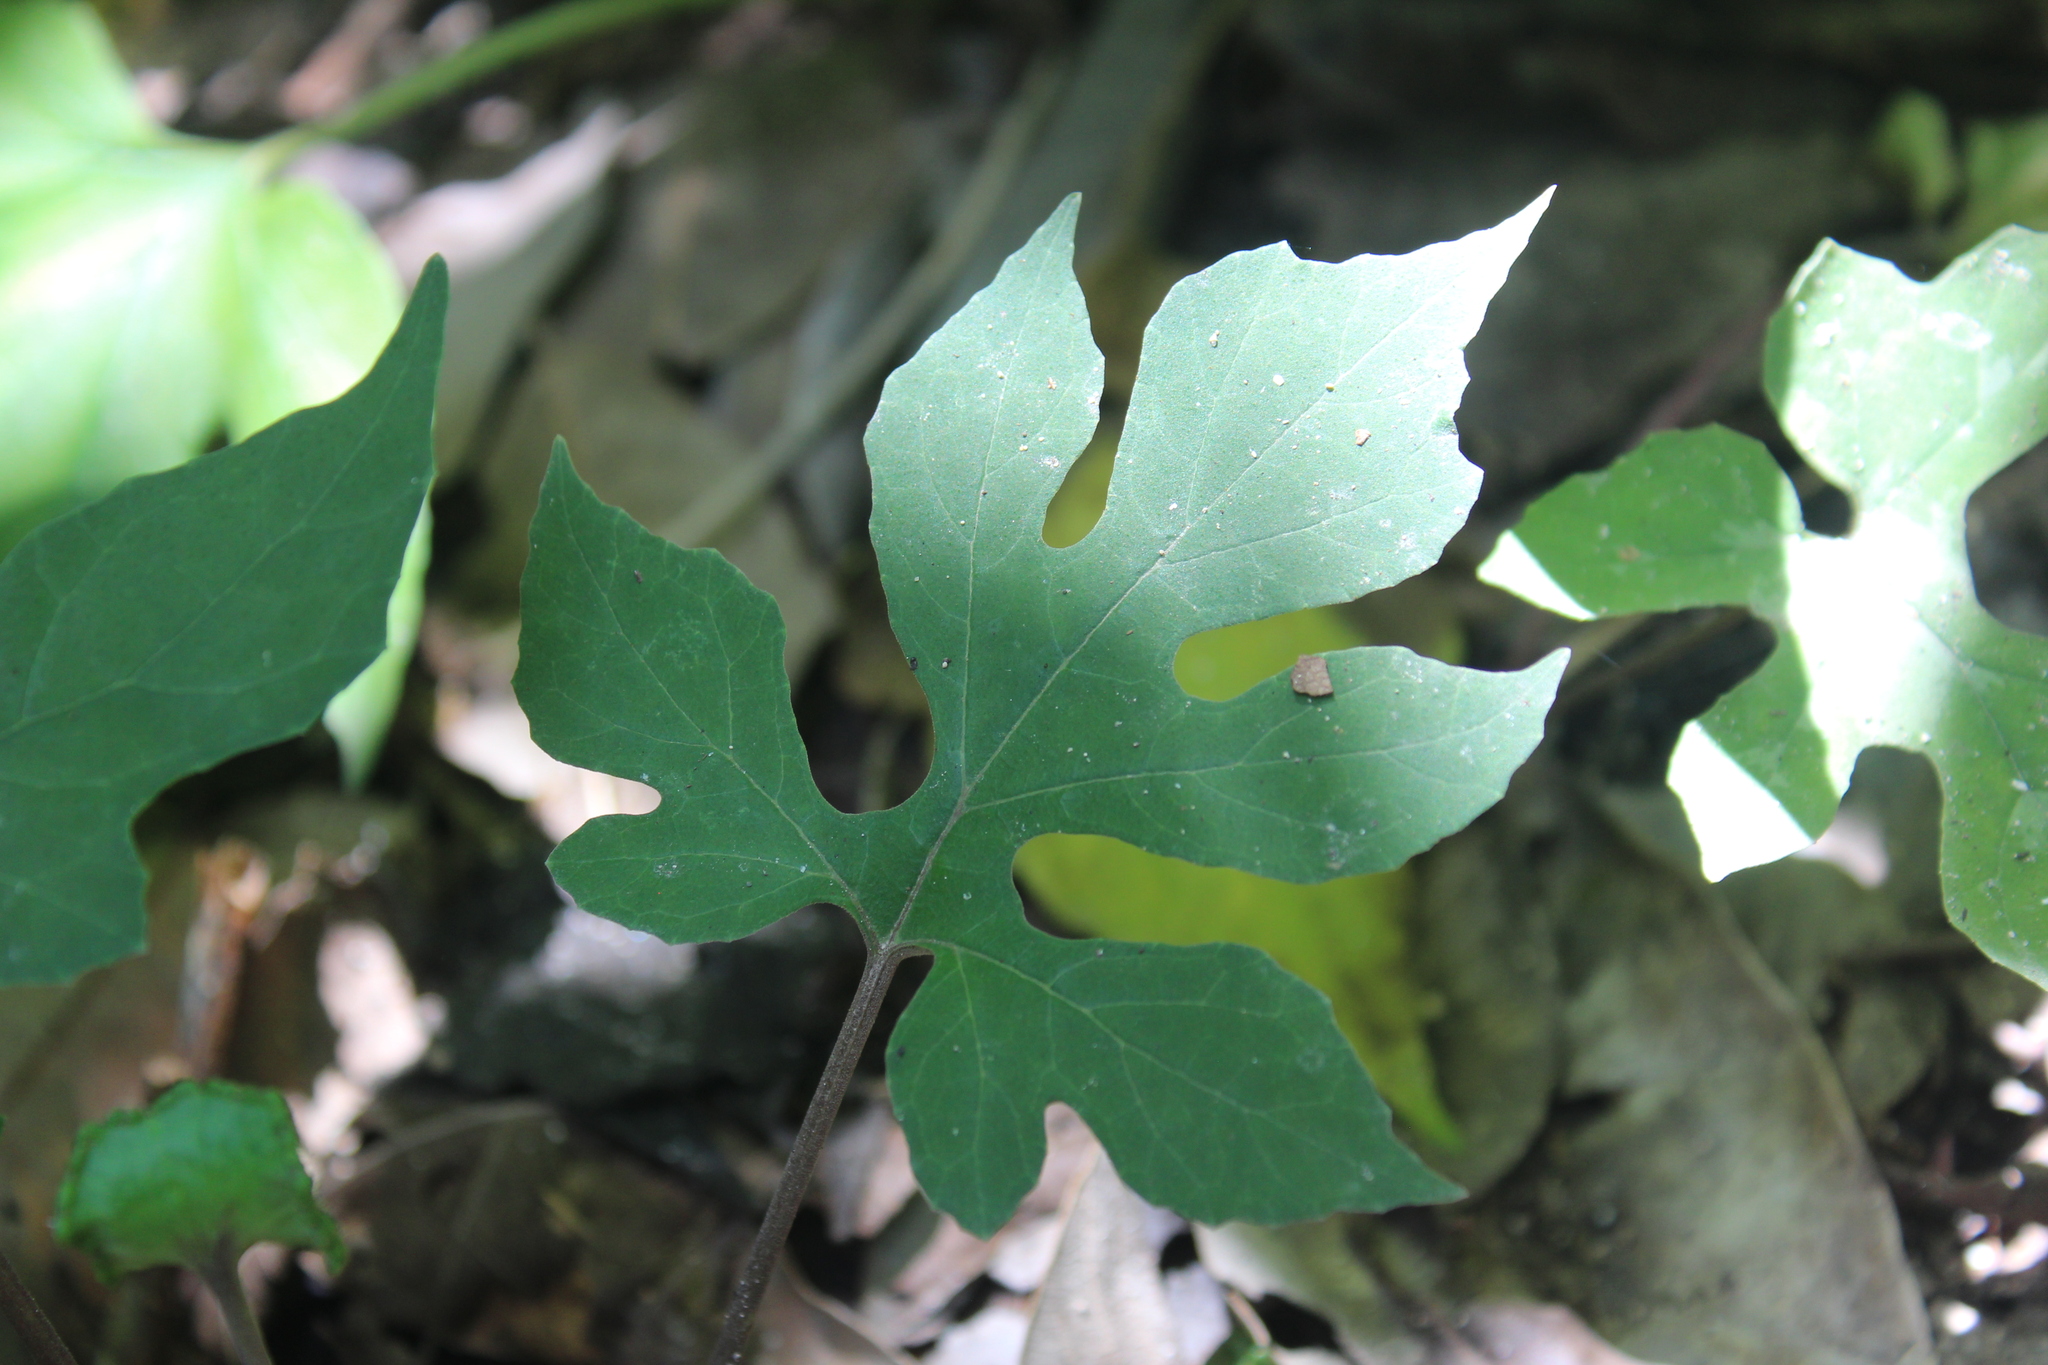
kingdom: Plantae
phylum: Tracheophyta
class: Magnoliopsida
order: Rosales
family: Moraceae
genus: Dorstenia
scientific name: Dorstenia contrajerva
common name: Tusilla
